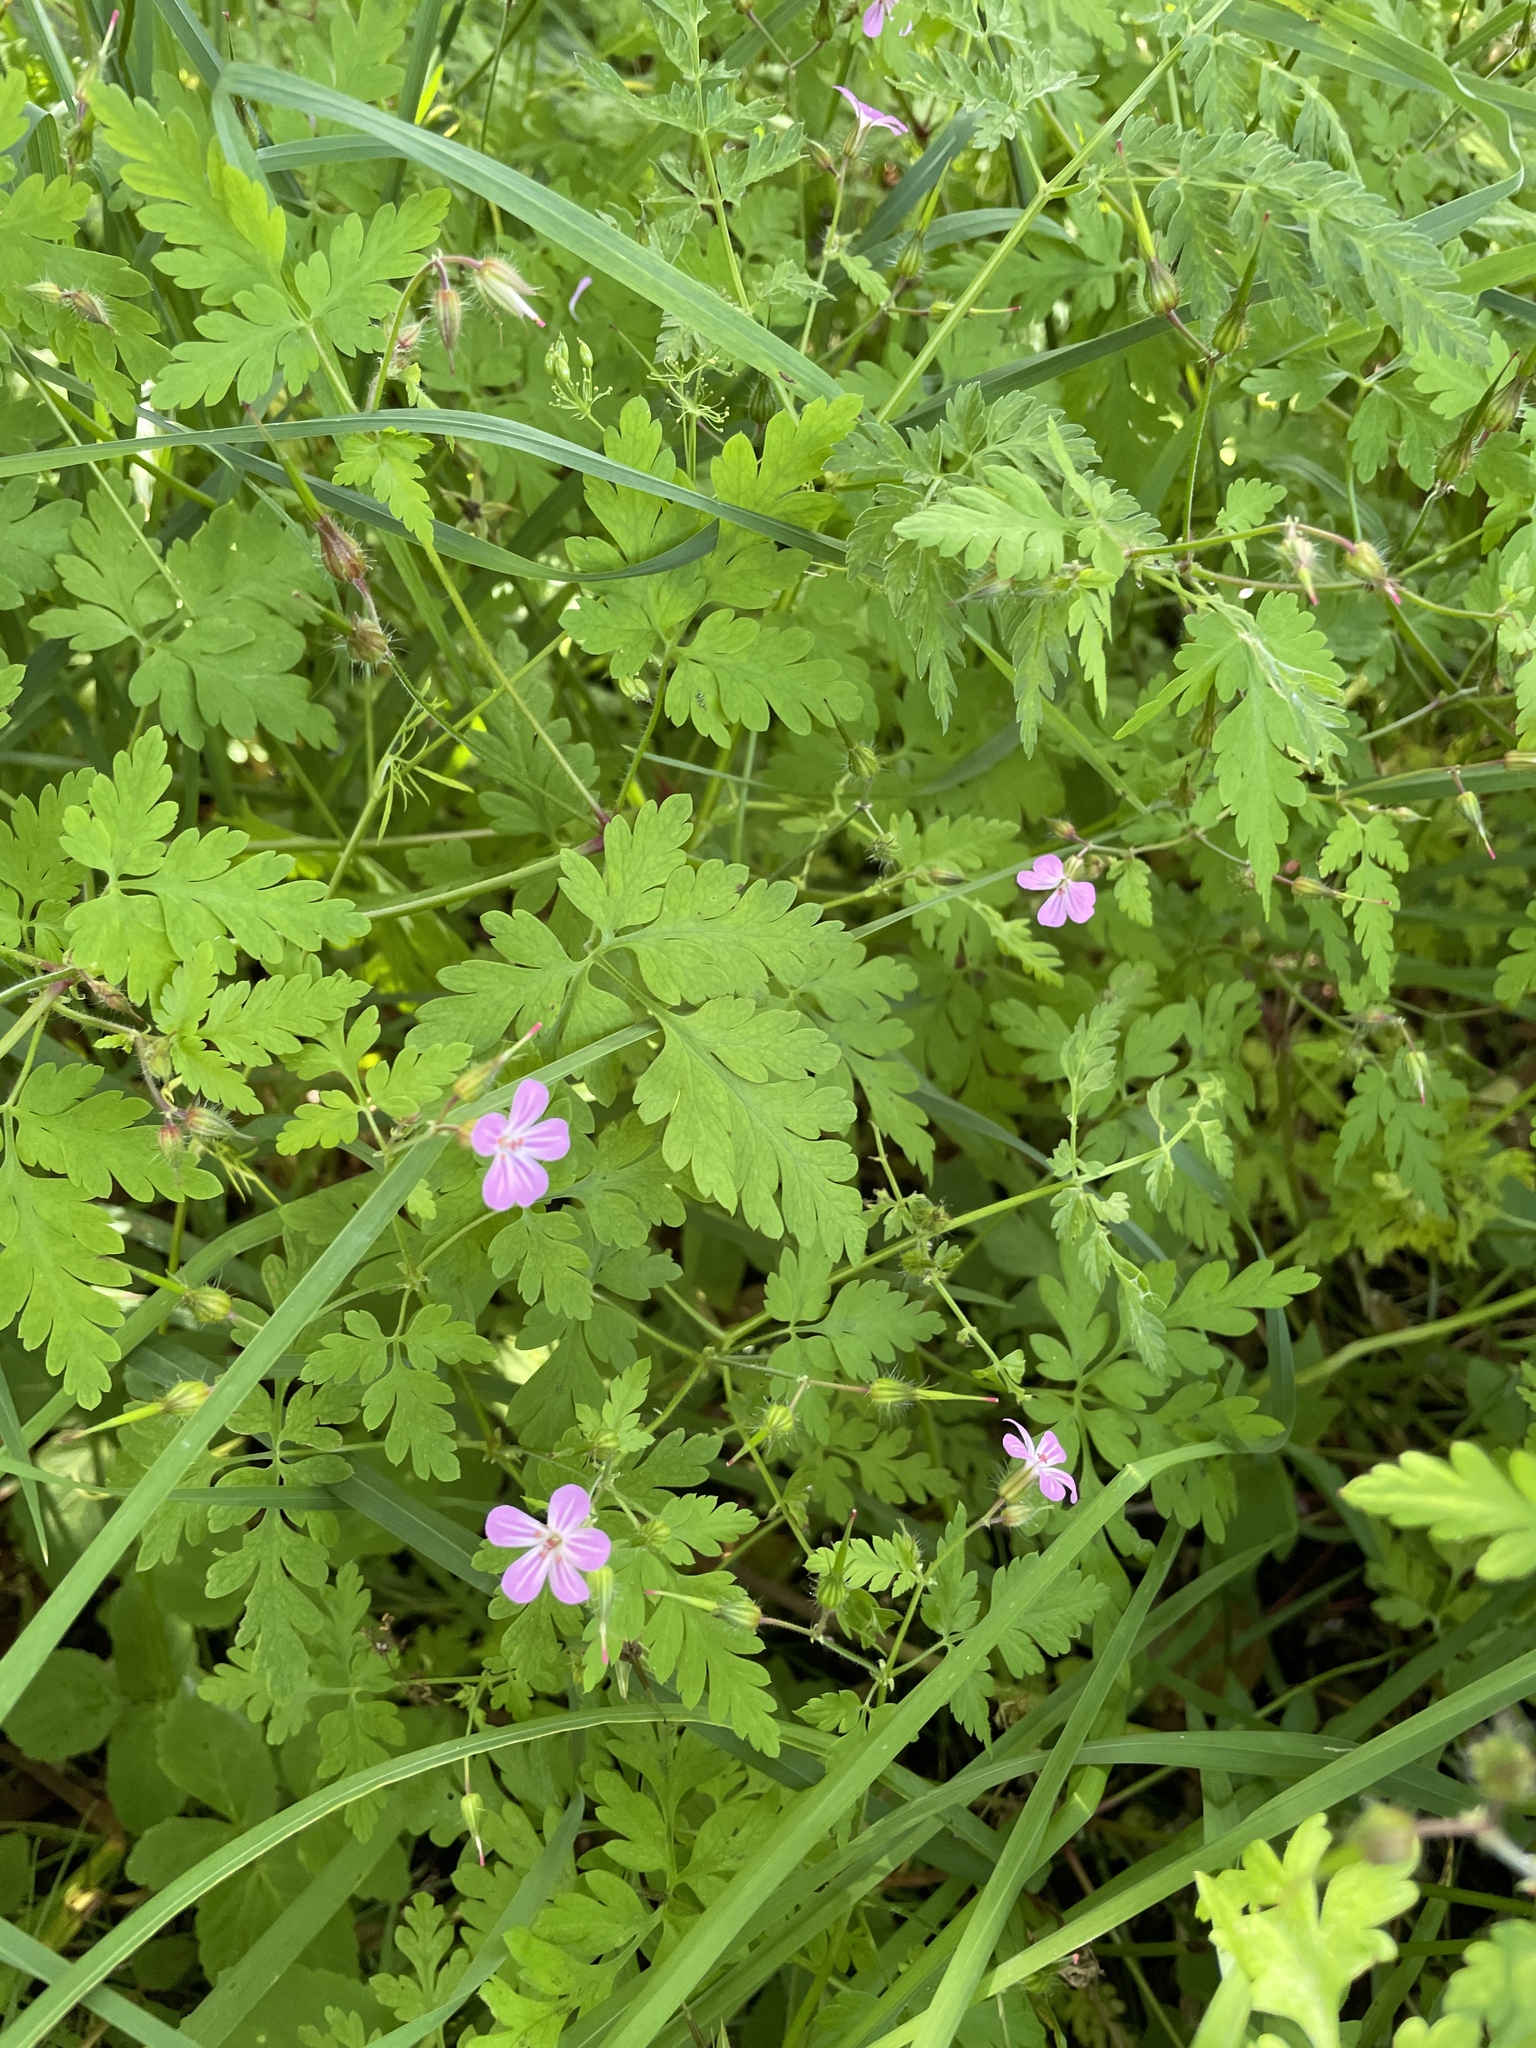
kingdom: Plantae
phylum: Tracheophyta
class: Magnoliopsida
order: Geraniales
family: Geraniaceae
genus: Geranium
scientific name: Geranium robertianum
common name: Herb-robert
